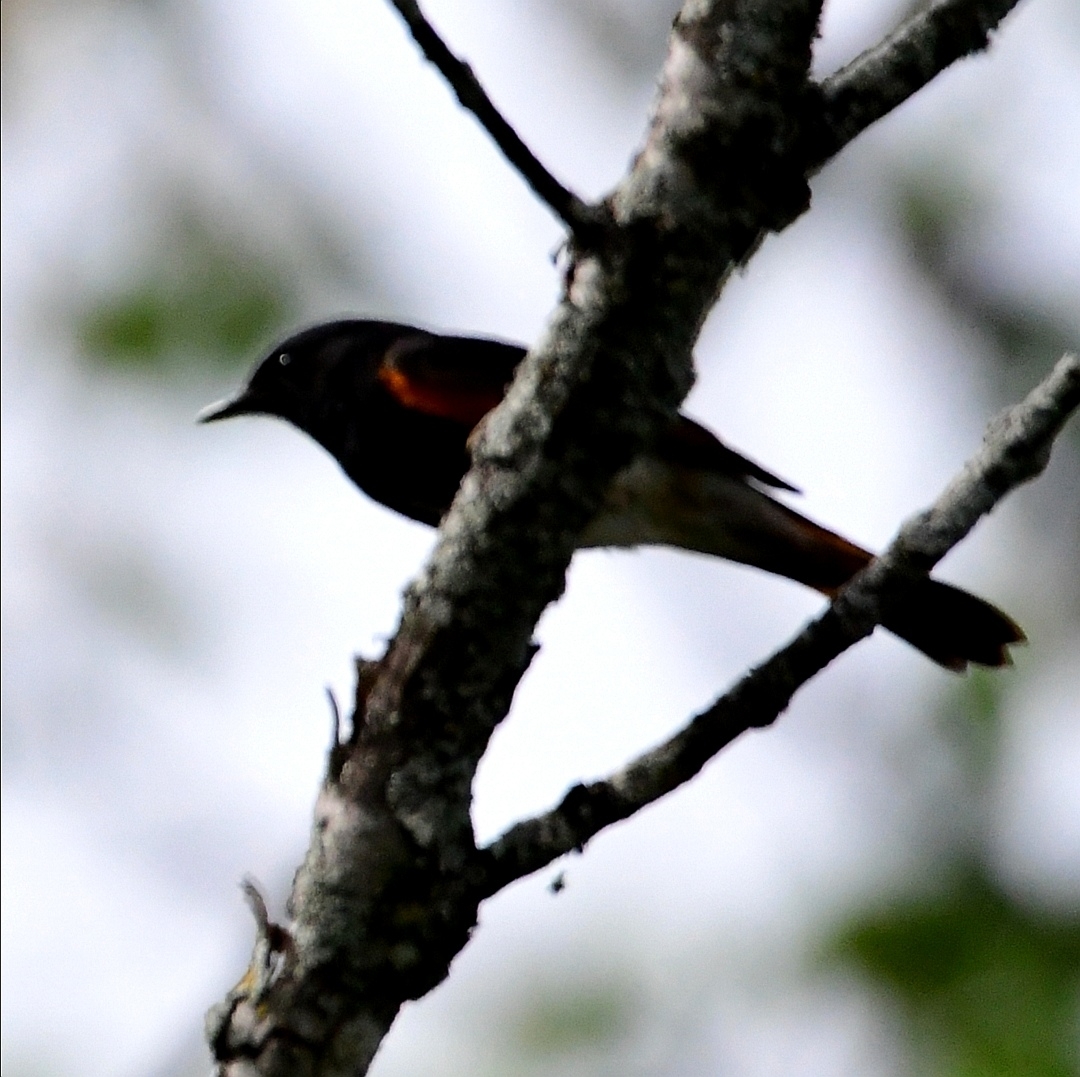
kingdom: Animalia
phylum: Chordata
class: Aves
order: Passeriformes
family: Parulidae
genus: Setophaga
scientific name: Setophaga ruticilla
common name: American redstart
